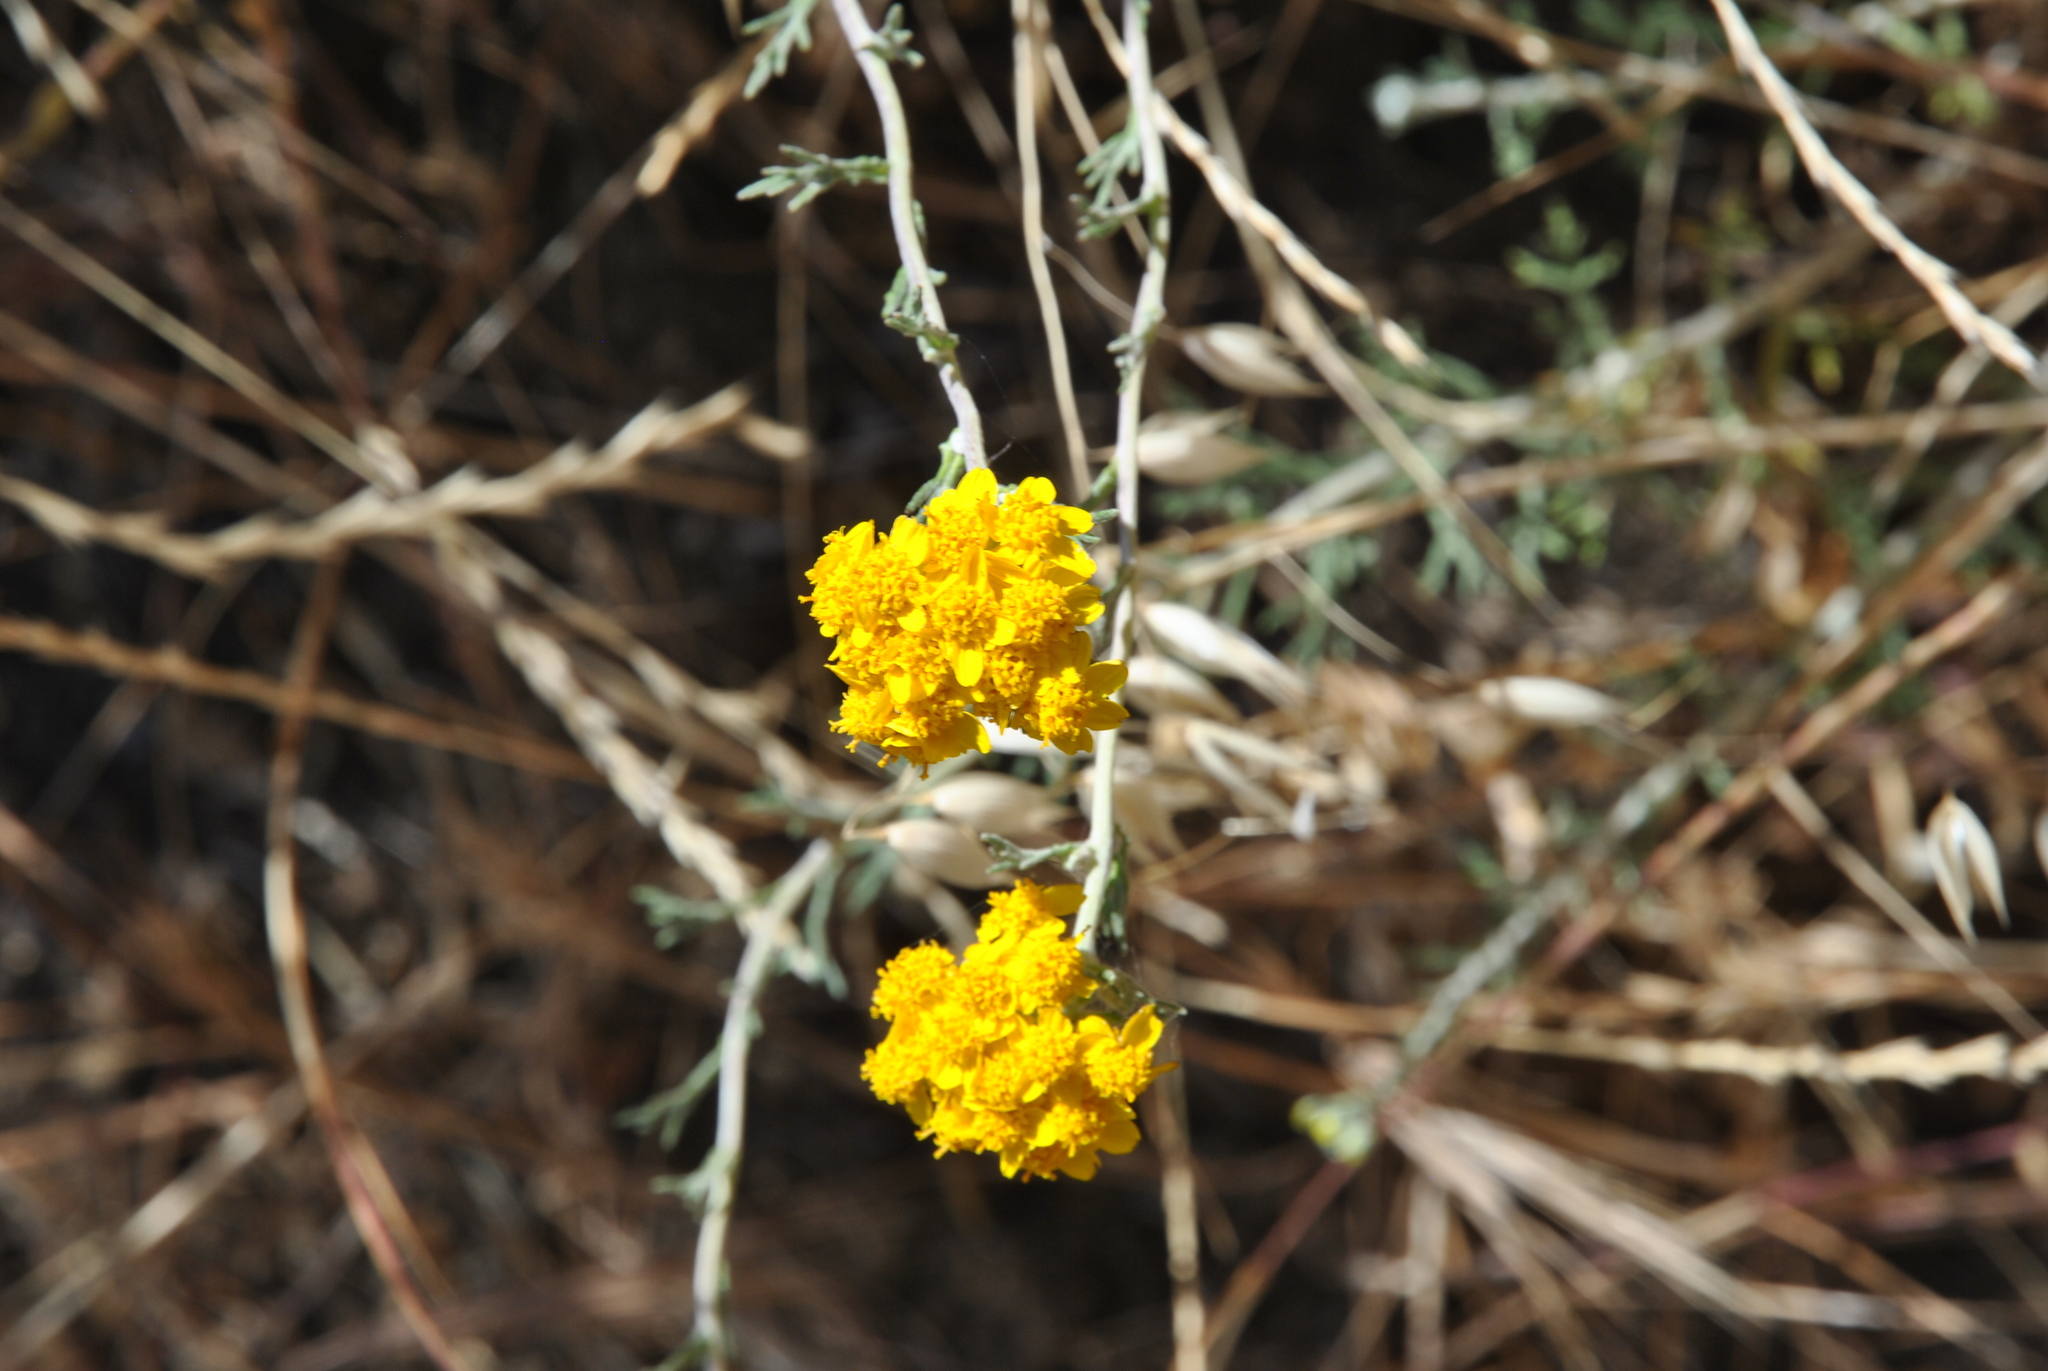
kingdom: Plantae
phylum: Tracheophyta
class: Magnoliopsida
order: Asterales
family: Asteraceae
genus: Eriophyllum
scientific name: Eriophyllum confertiflorum
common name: Golden-yarrow
